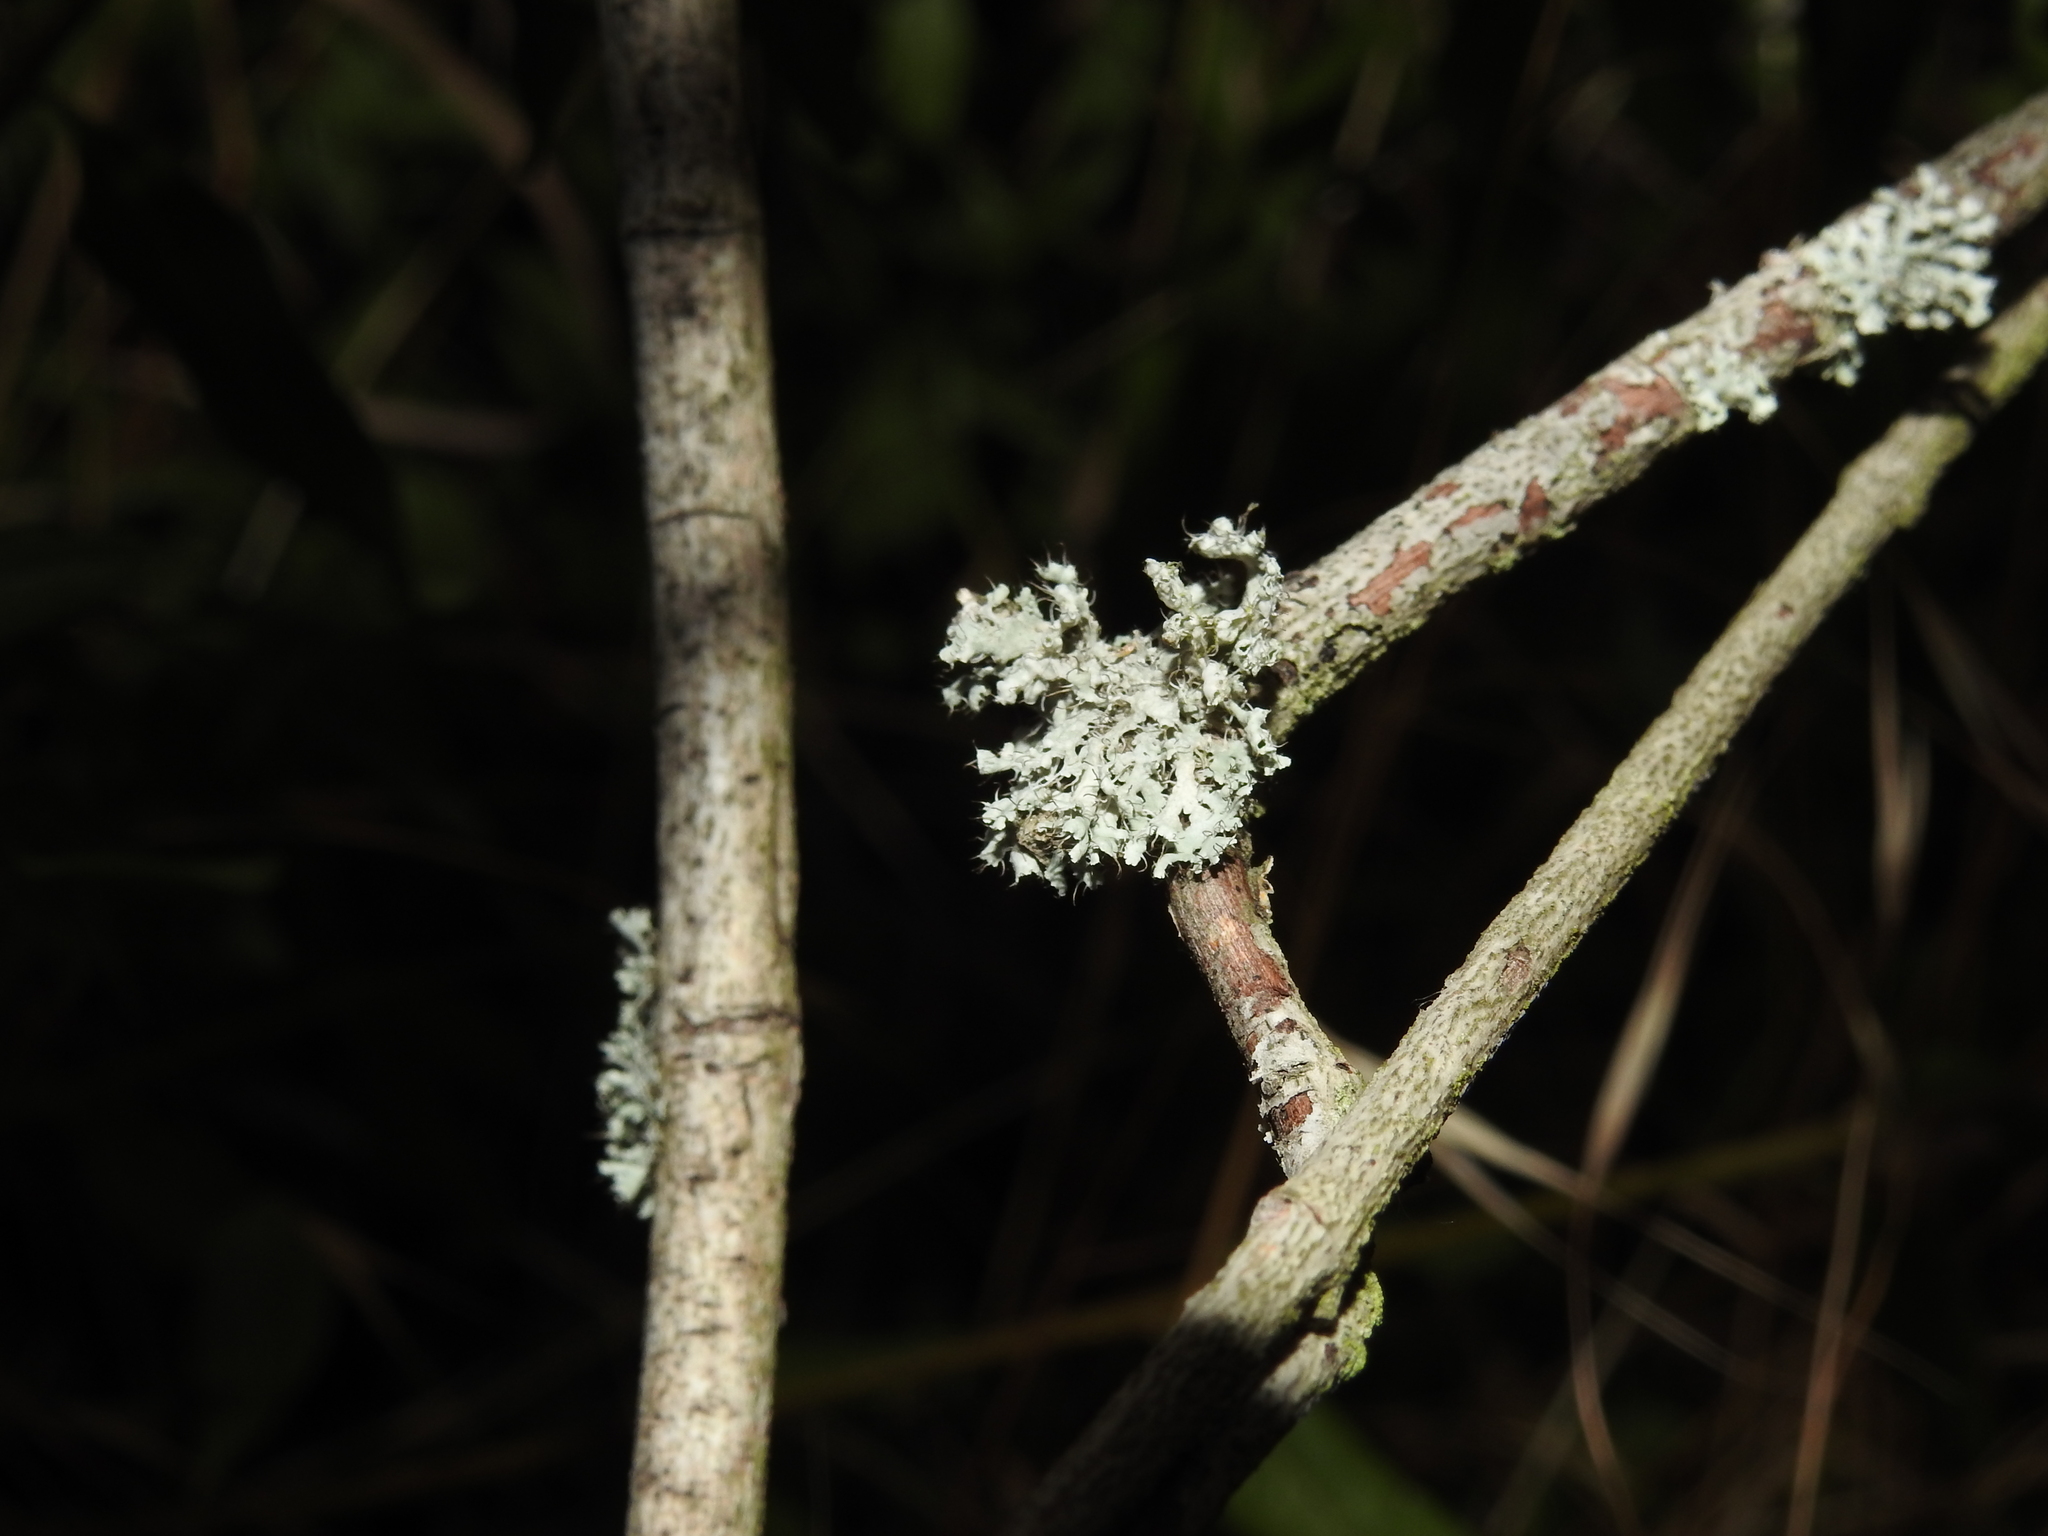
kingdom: Fungi
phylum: Ascomycota
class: Lecanoromycetes
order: Caliciales
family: Physciaceae
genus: Physcia
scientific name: Physcia adscendens
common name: Hooded rosette lichen
